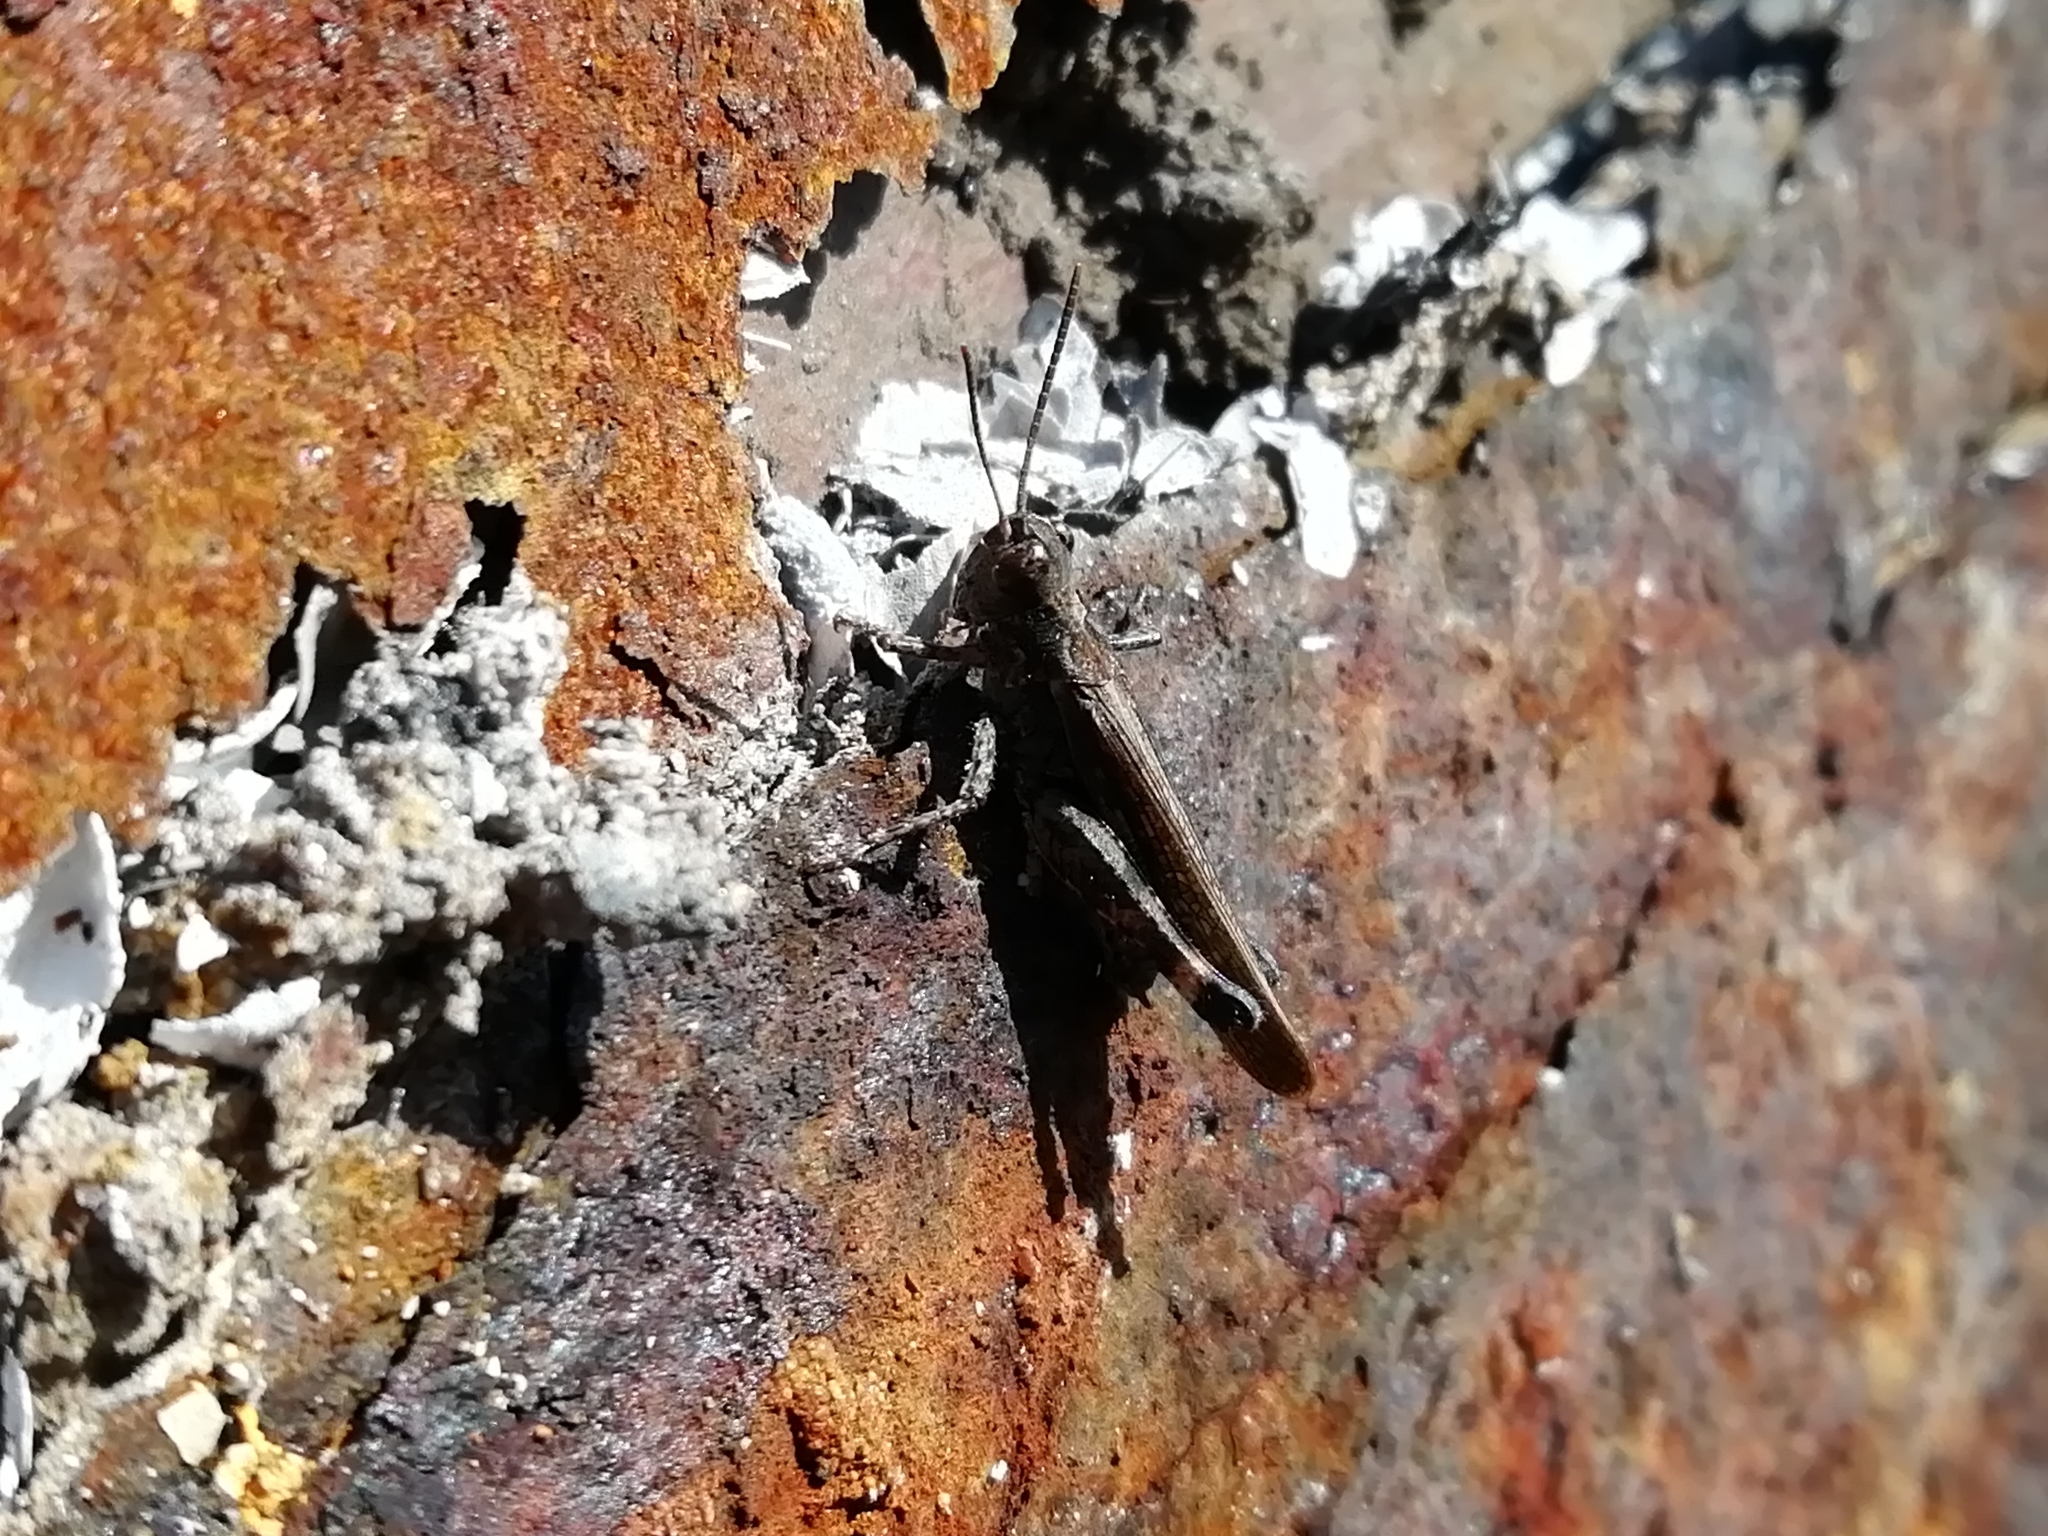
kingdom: Animalia
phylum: Arthropoda
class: Insecta
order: Orthoptera
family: Acrididae
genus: Epacromius
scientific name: Epacromius pulverulentus
